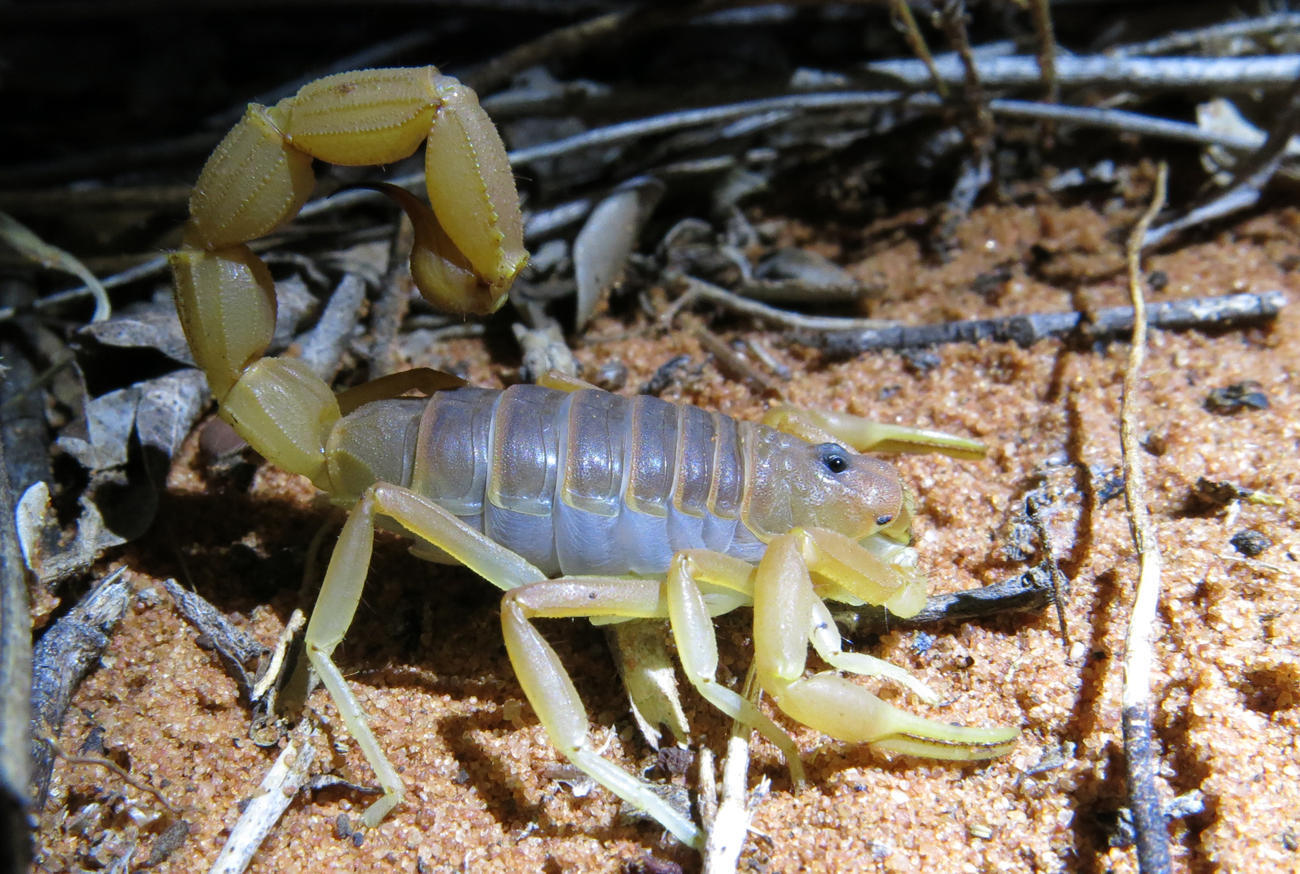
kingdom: Animalia
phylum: Arthropoda
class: Arachnida
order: Scorpiones
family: Buthidae
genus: Parabuthus
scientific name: Parabuthus mossambicensis
